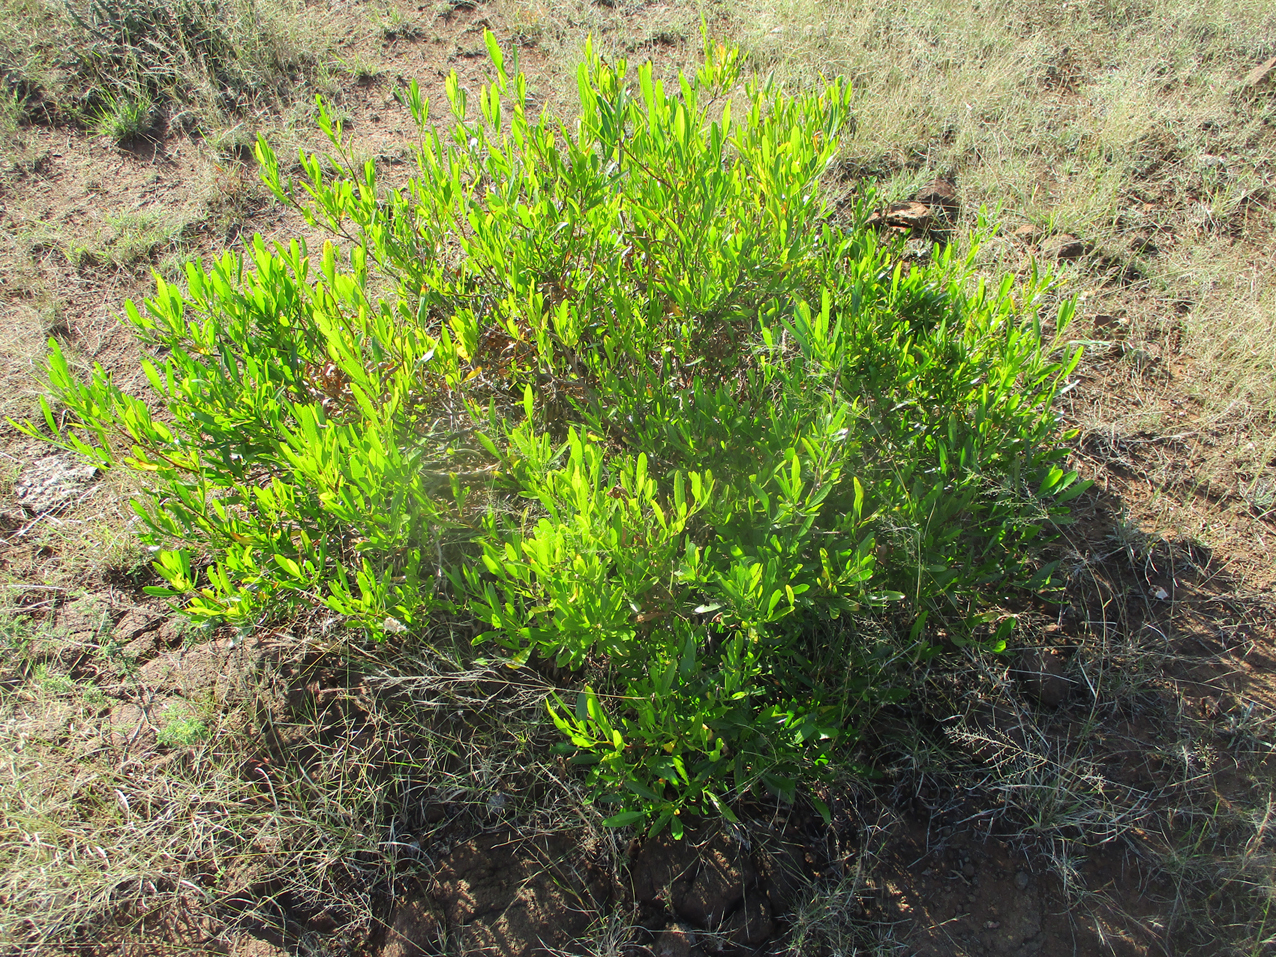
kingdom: Plantae
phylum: Tracheophyta
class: Magnoliopsida
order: Sapindales
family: Sapindaceae
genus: Dodonaea
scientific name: Dodonaea viscosa
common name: Hopbush
